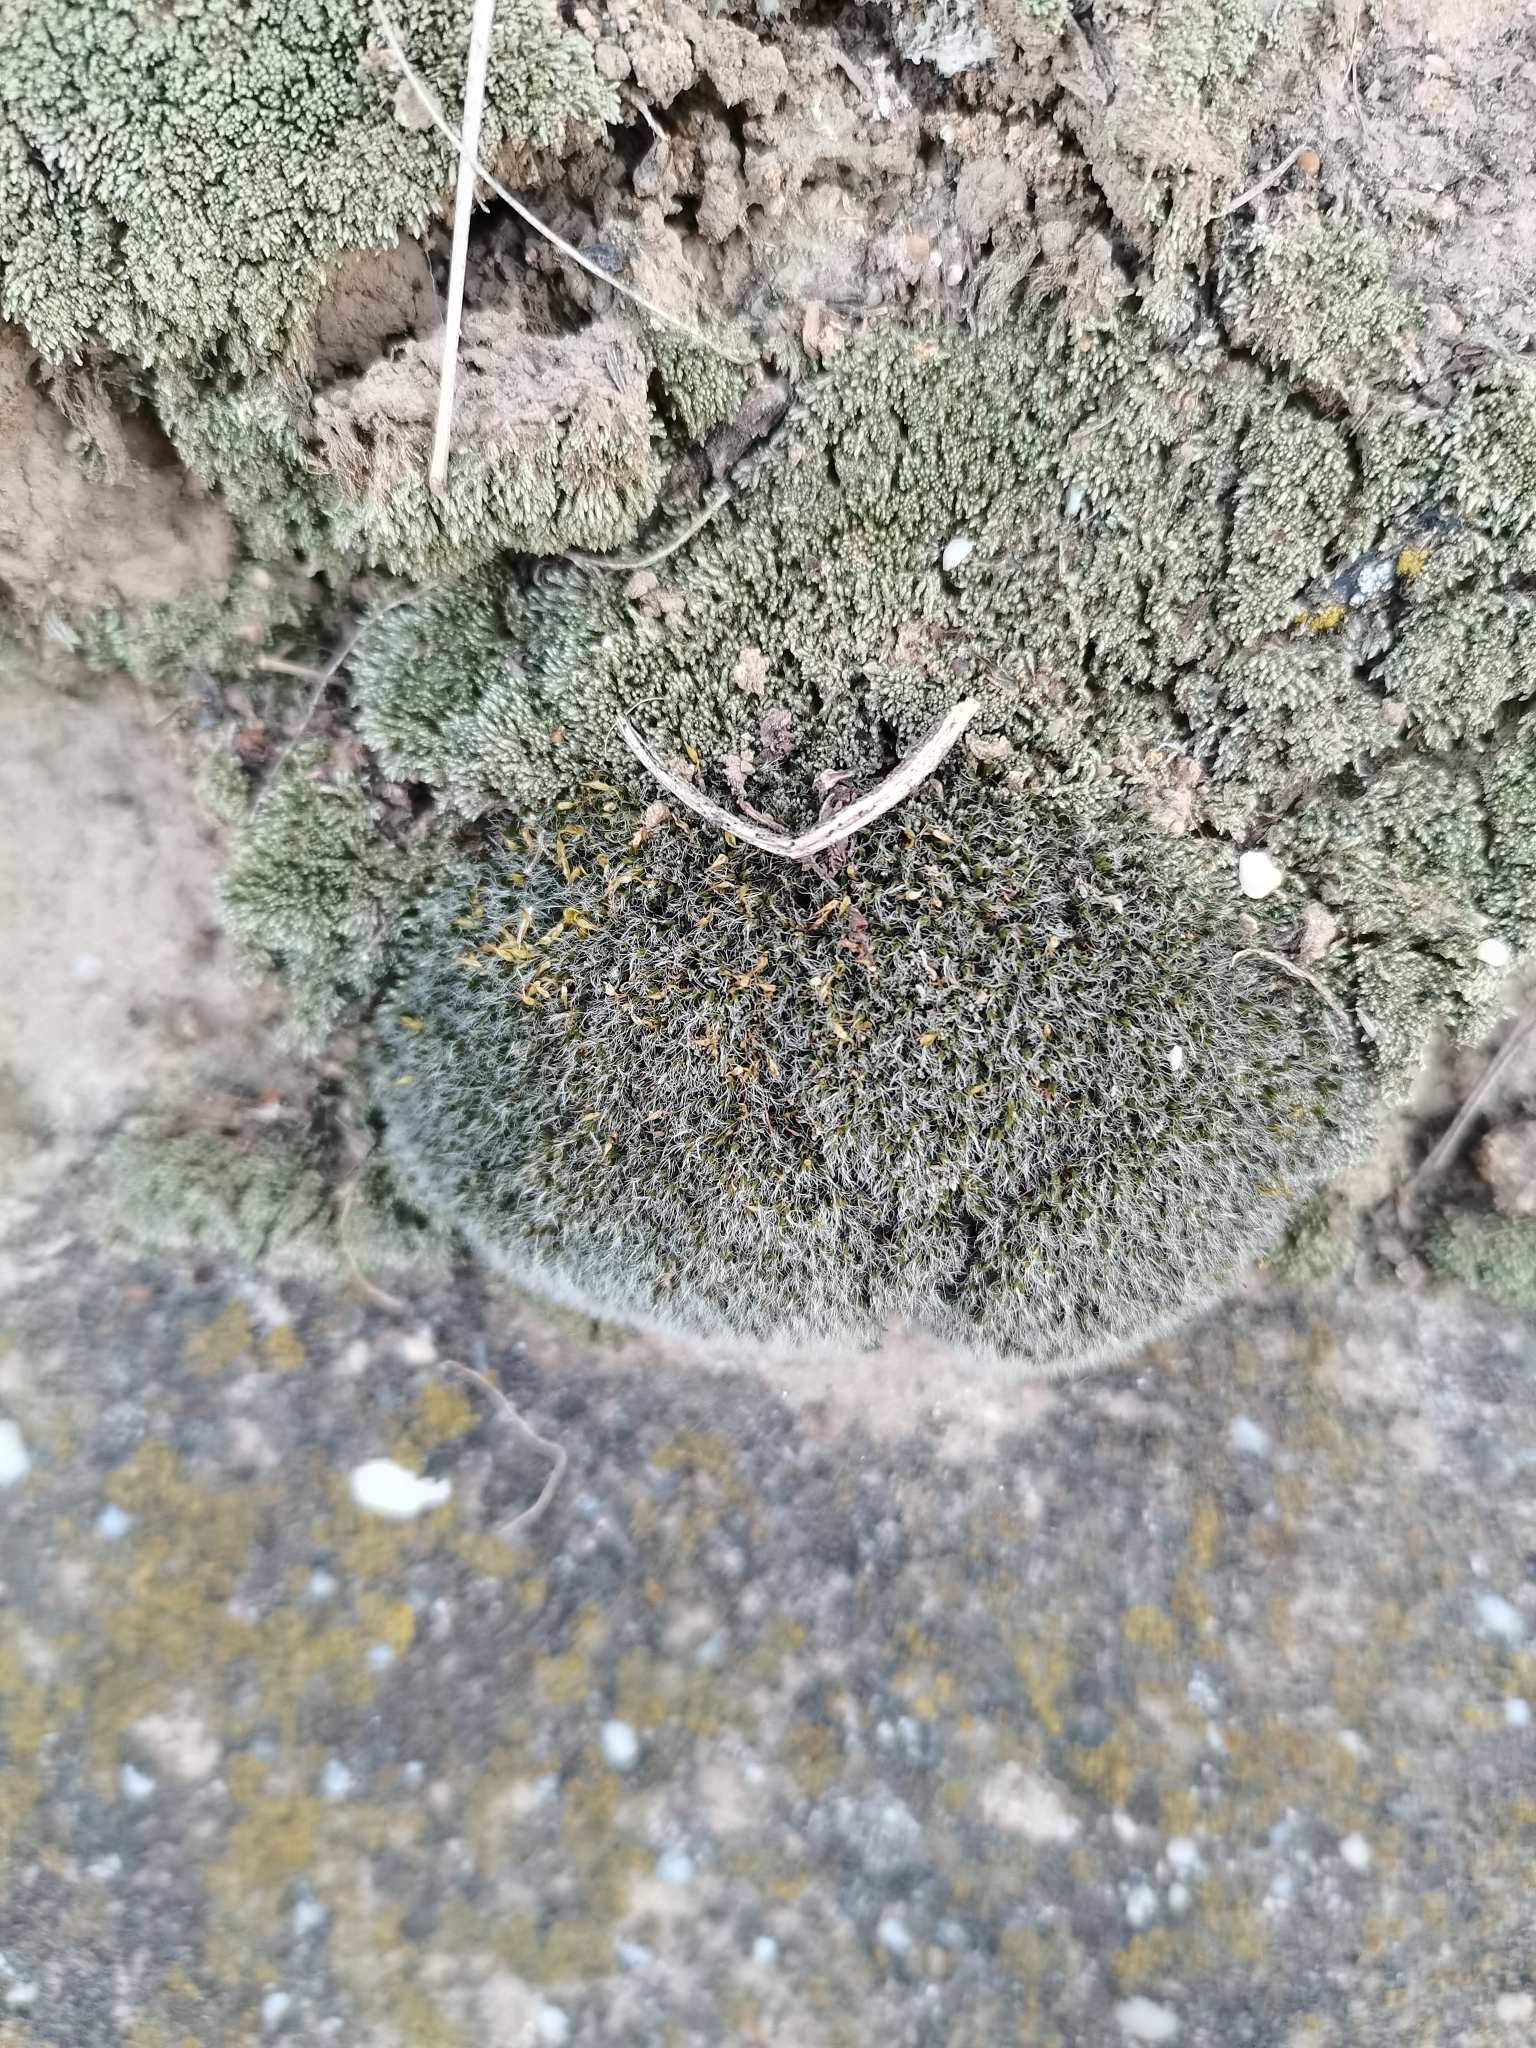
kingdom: Plantae
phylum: Bryophyta
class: Bryopsida
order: Grimmiales
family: Grimmiaceae
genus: Grimmia
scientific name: Grimmia pulvinata
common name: Grey-cushioned grimmia
